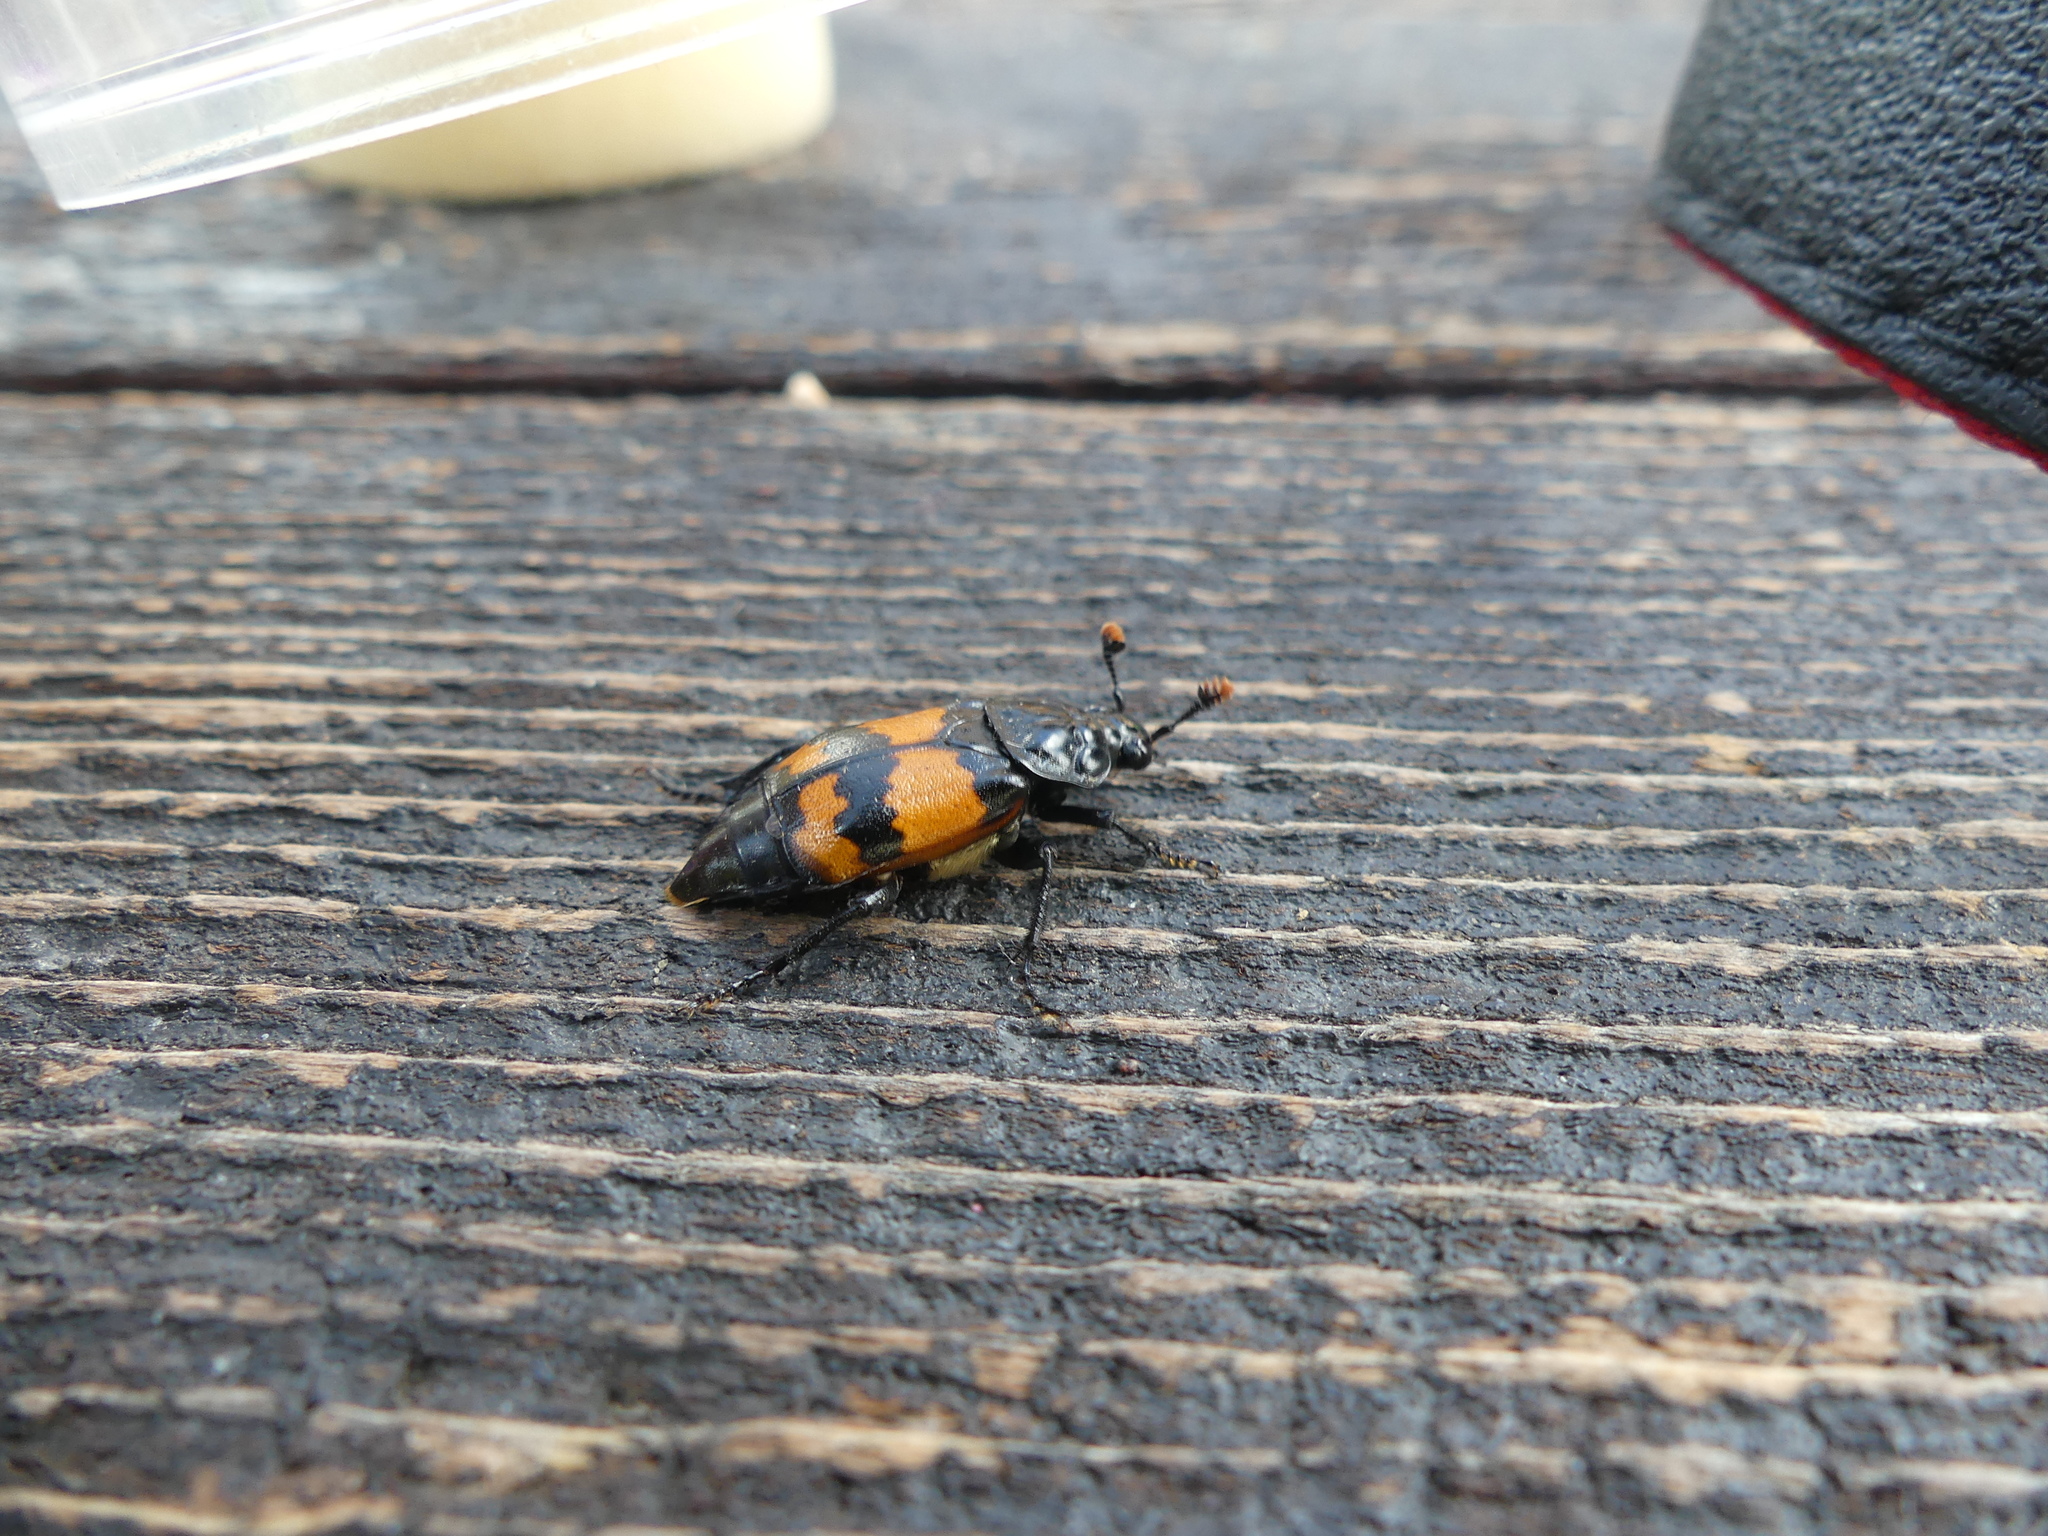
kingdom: Animalia
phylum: Arthropoda
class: Insecta
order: Coleoptera
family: Staphylinidae
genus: Nicrophorus
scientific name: Nicrophorus investigator
